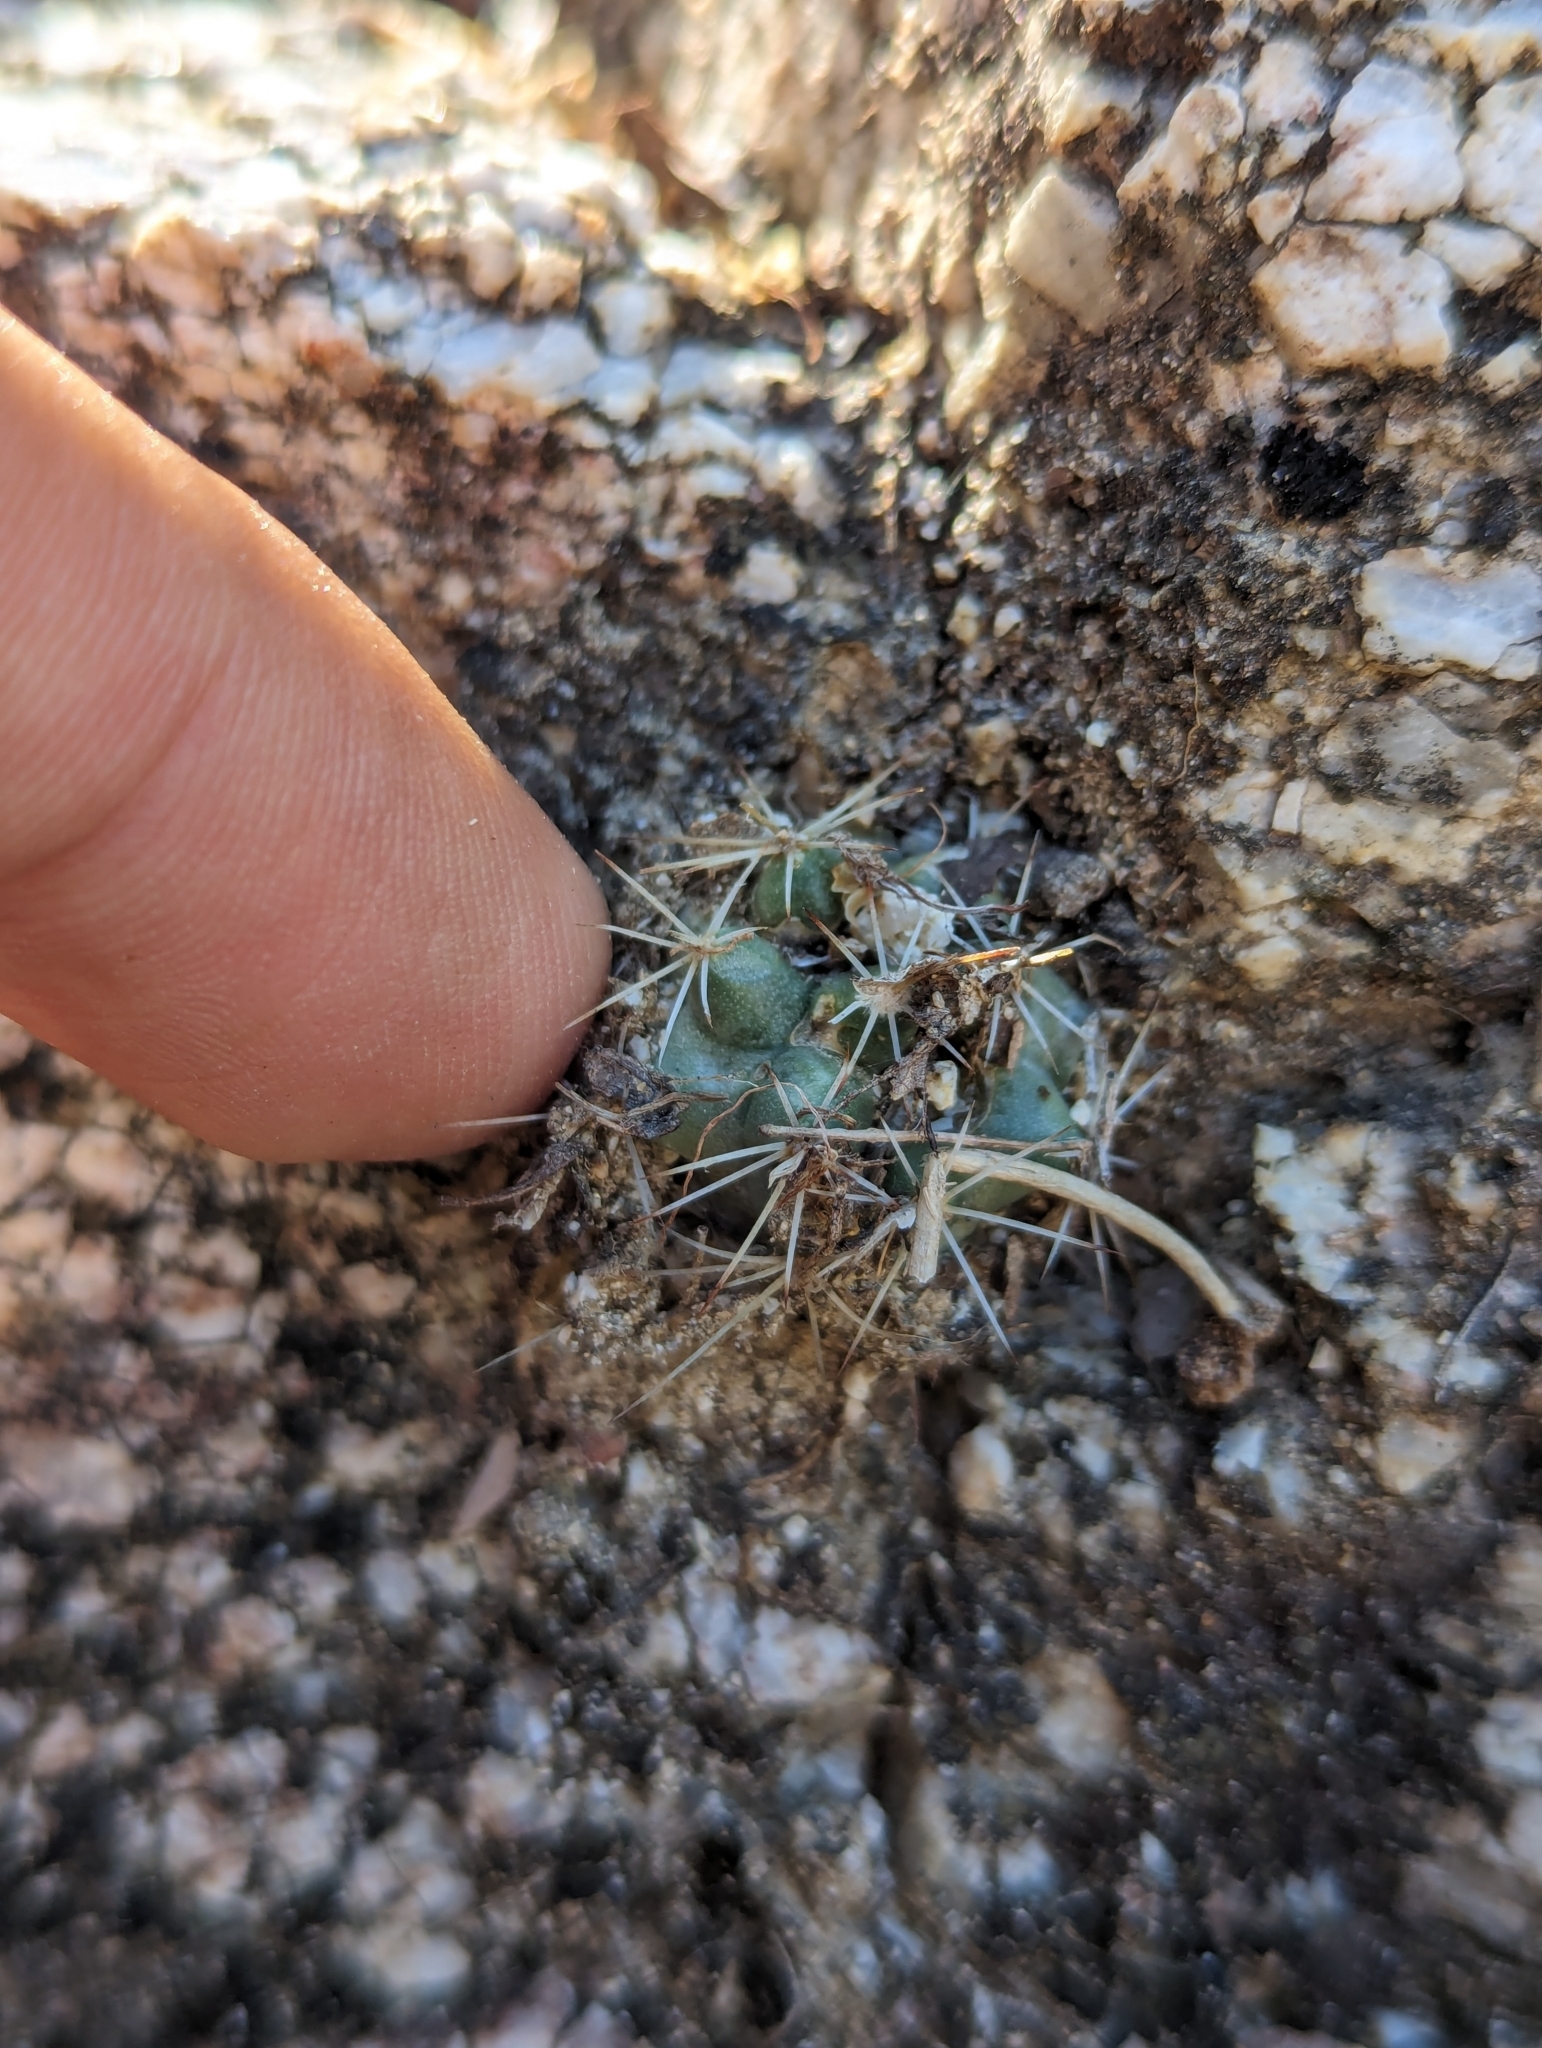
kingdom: Plantae
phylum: Tracheophyta
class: Magnoliopsida
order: Caryophyllales
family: Cactaceae
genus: Mammillaria
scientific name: Mammillaria petrophila
